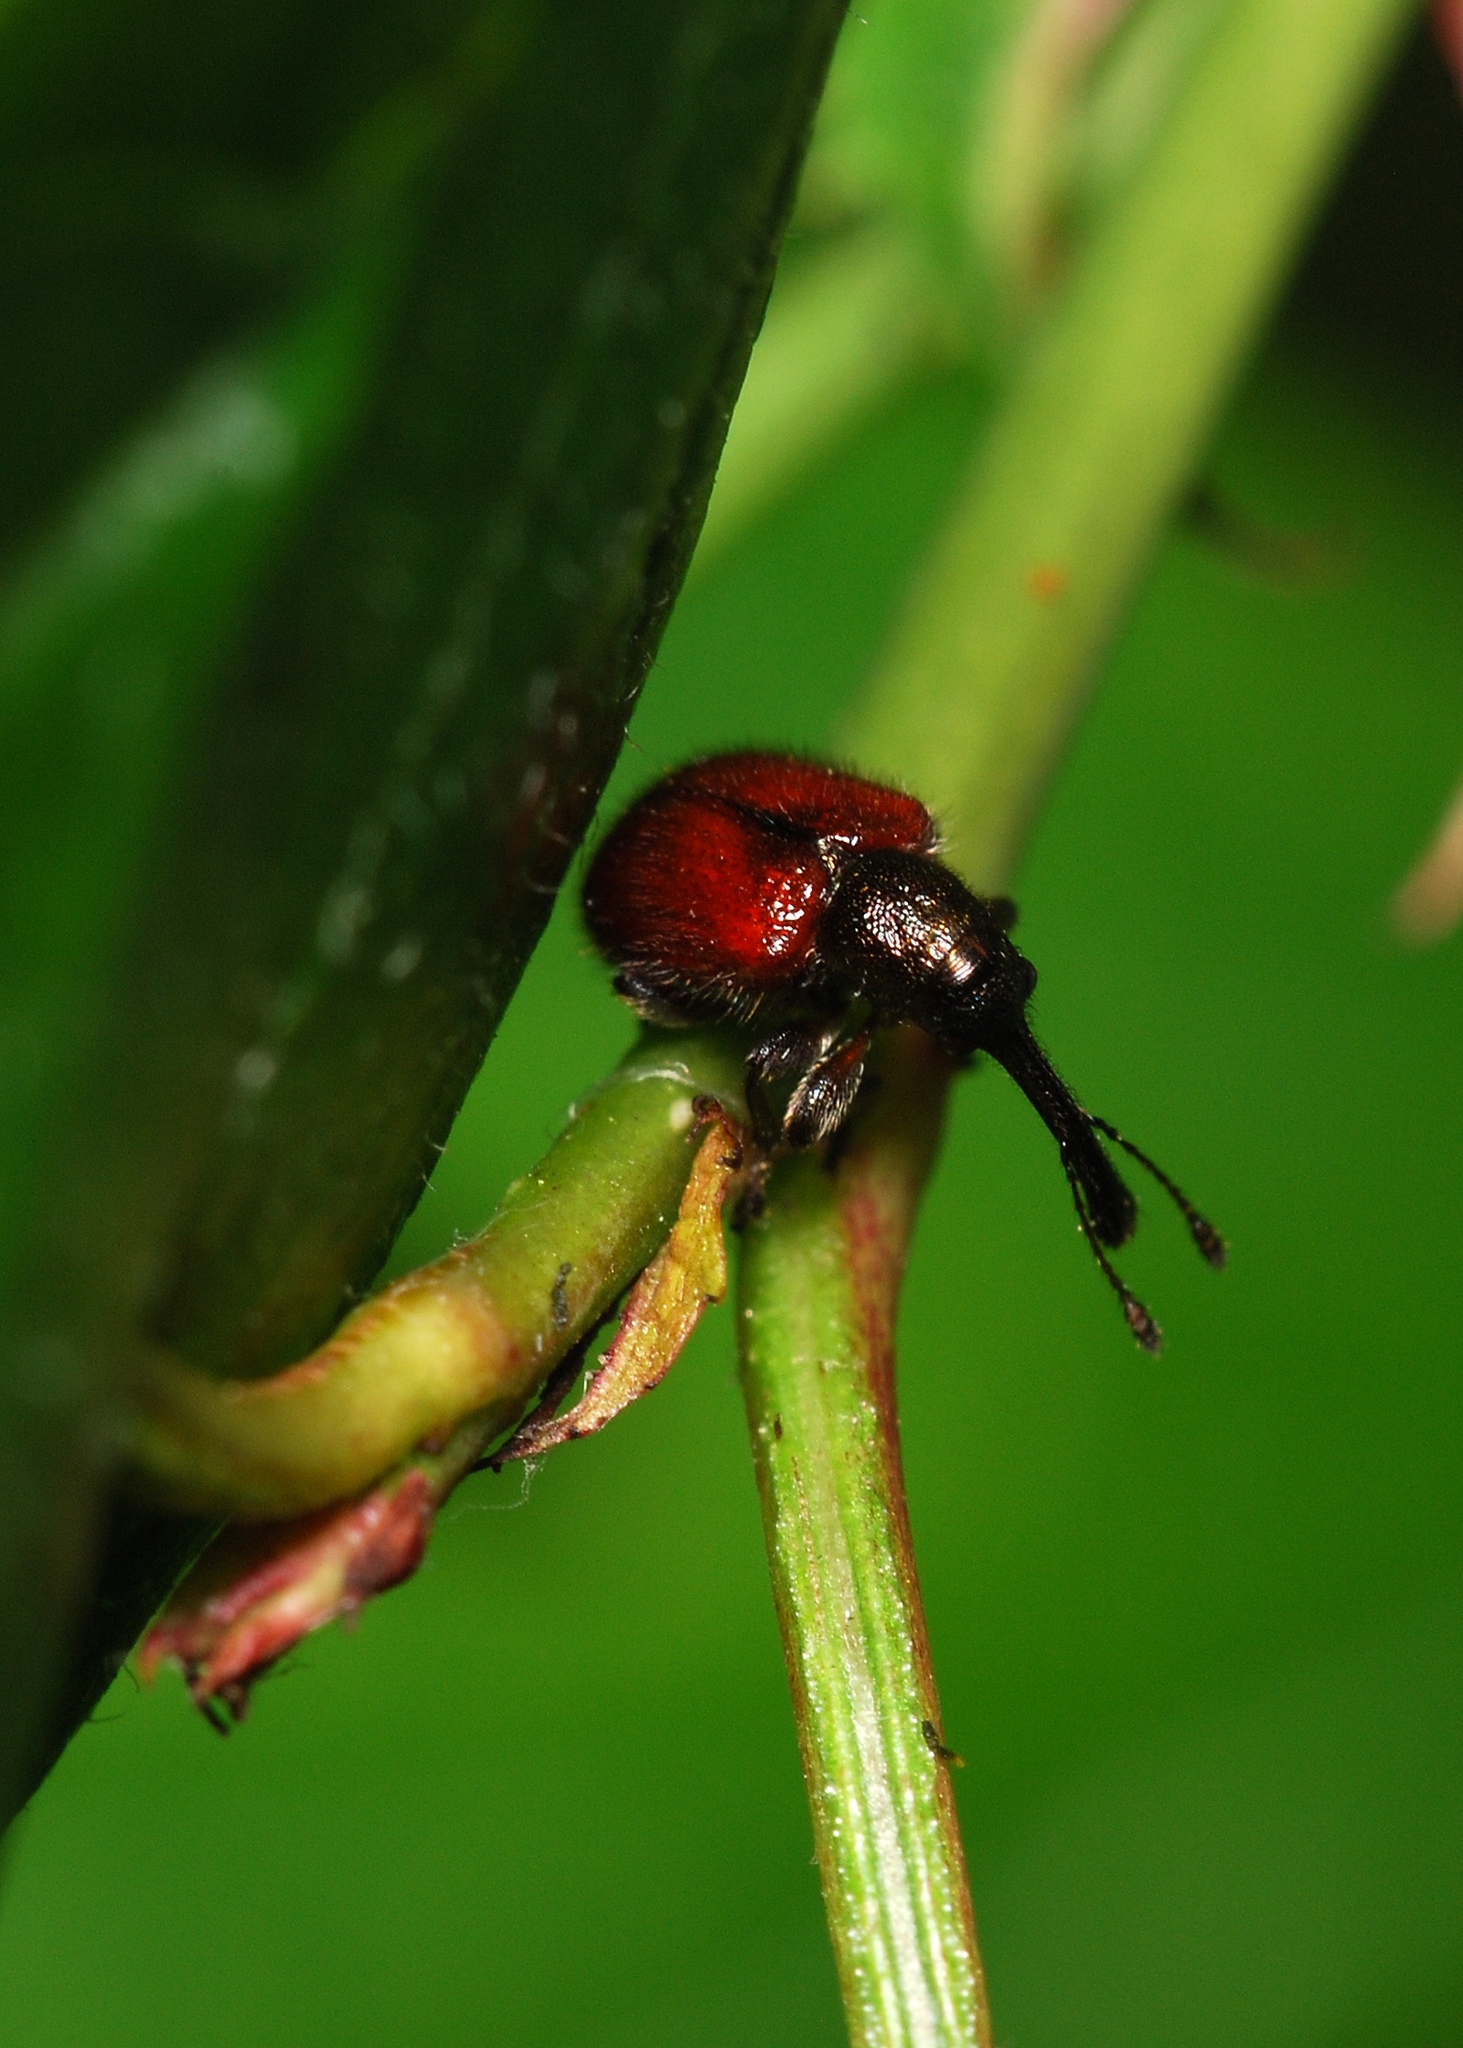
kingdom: Animalia
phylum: Arthropoda
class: Insecta
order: Coleoptera
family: Rhynchitidae
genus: Tatianaerhynchites
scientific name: Tatianaerhynchites aequatus
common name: Apple fruit rhynchites
